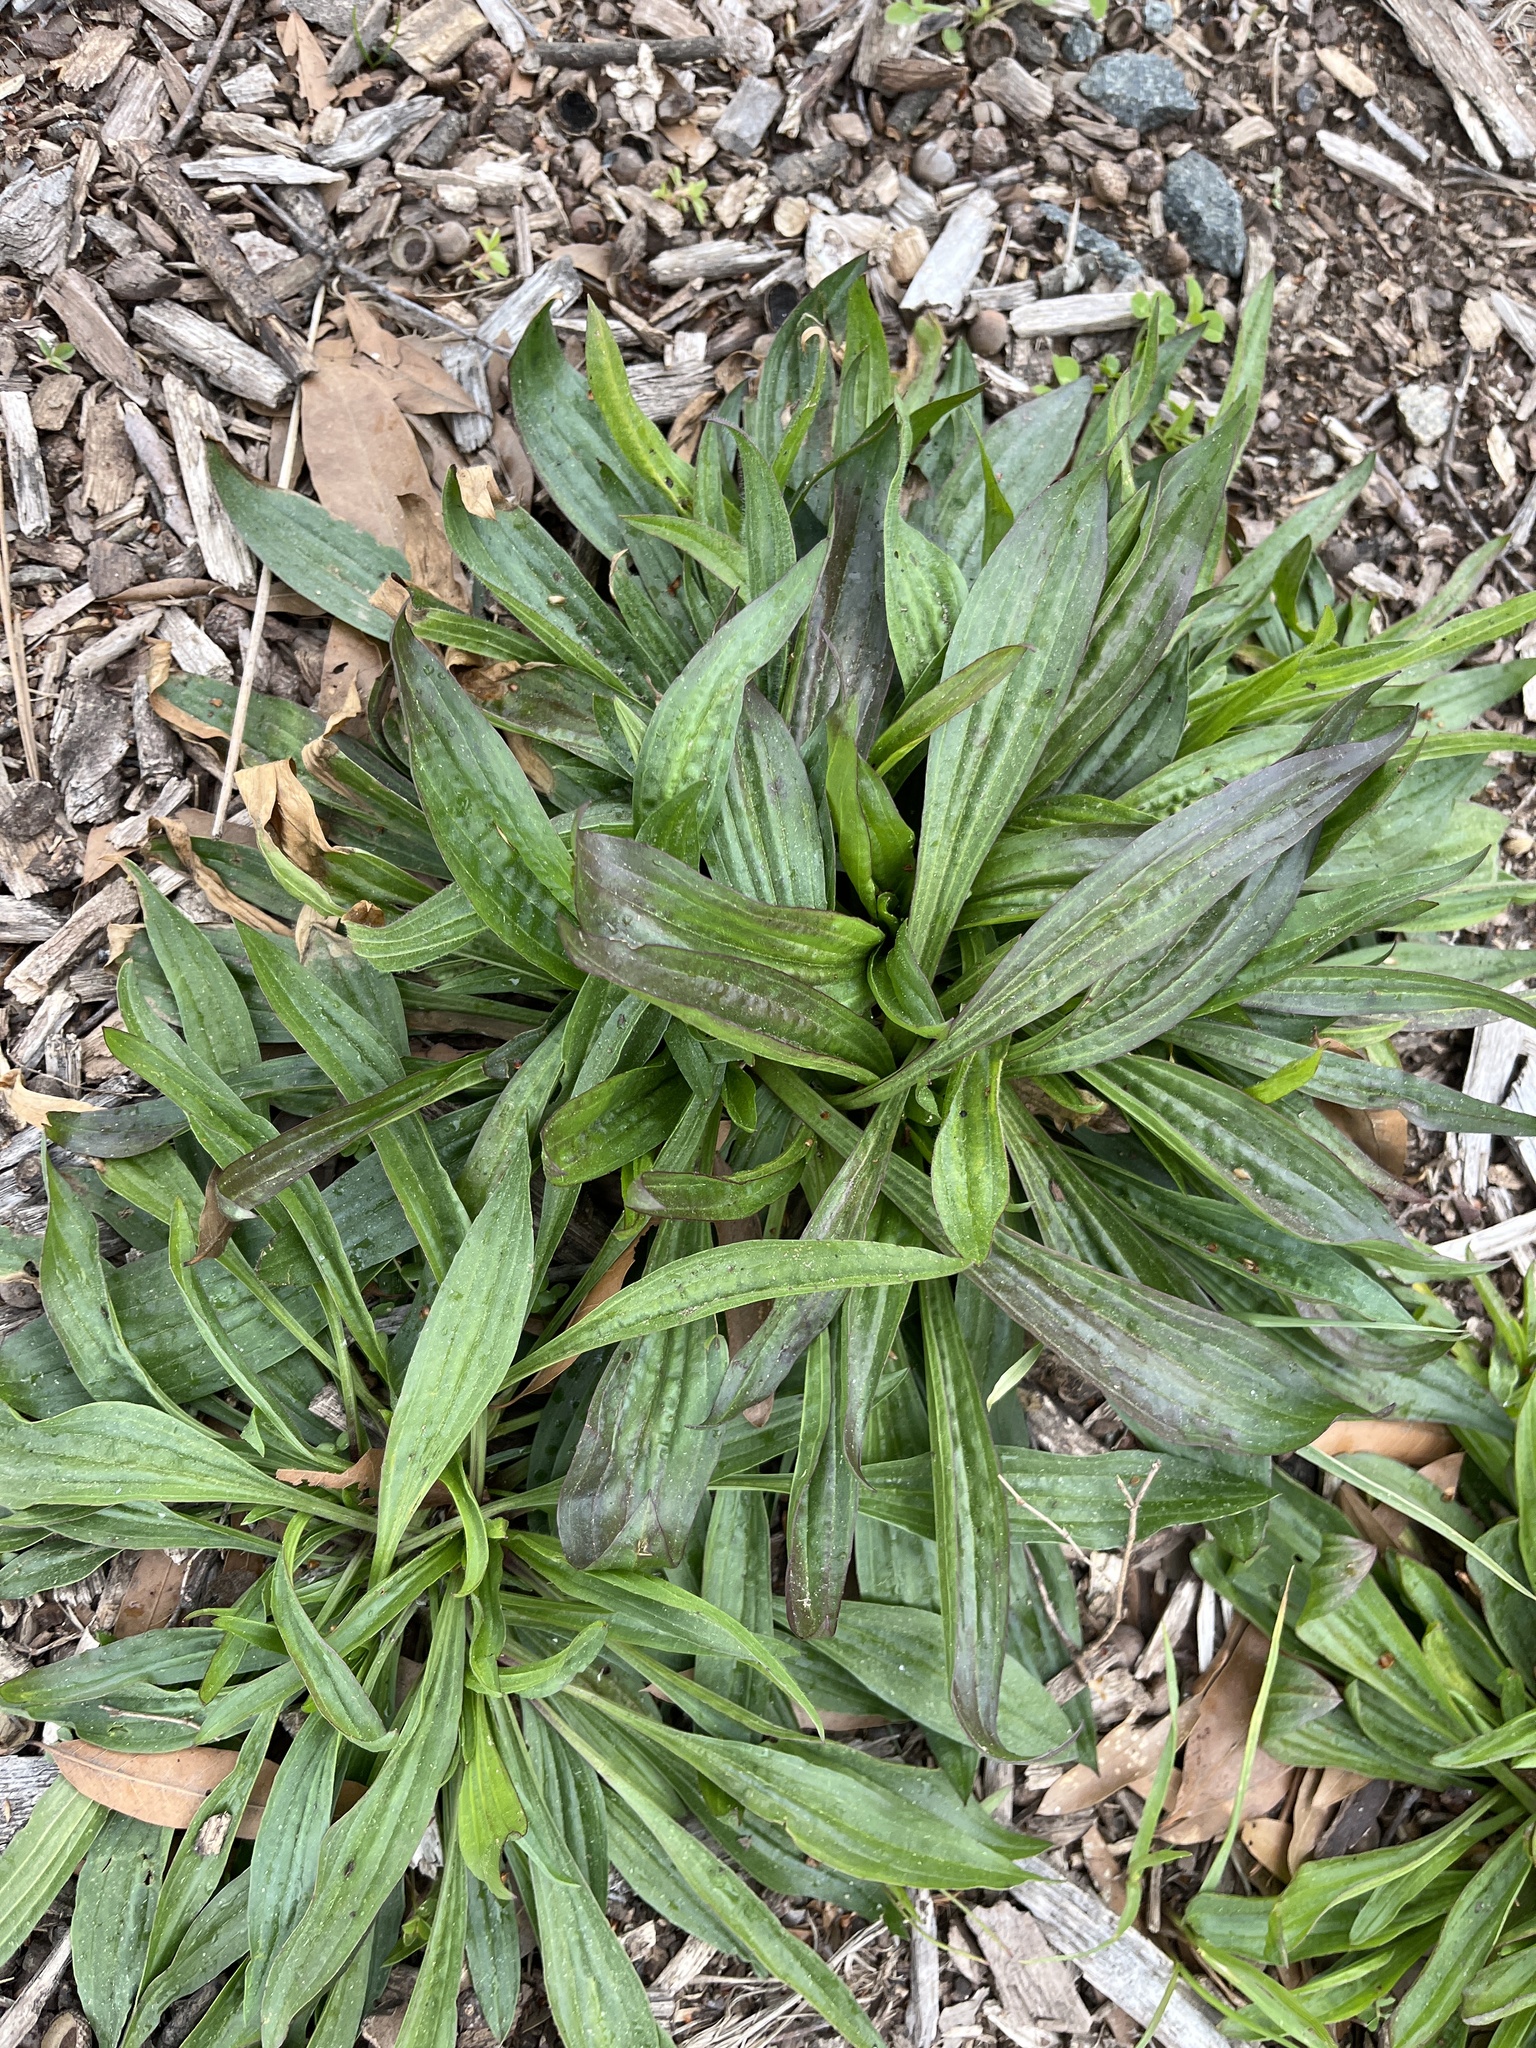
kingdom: Plantae
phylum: Tracheophyta
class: Magnoliopsida
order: Lamiales
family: Plantaginaceae
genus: Plantago
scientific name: Plantago lanceolata
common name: Ribwort plantain
